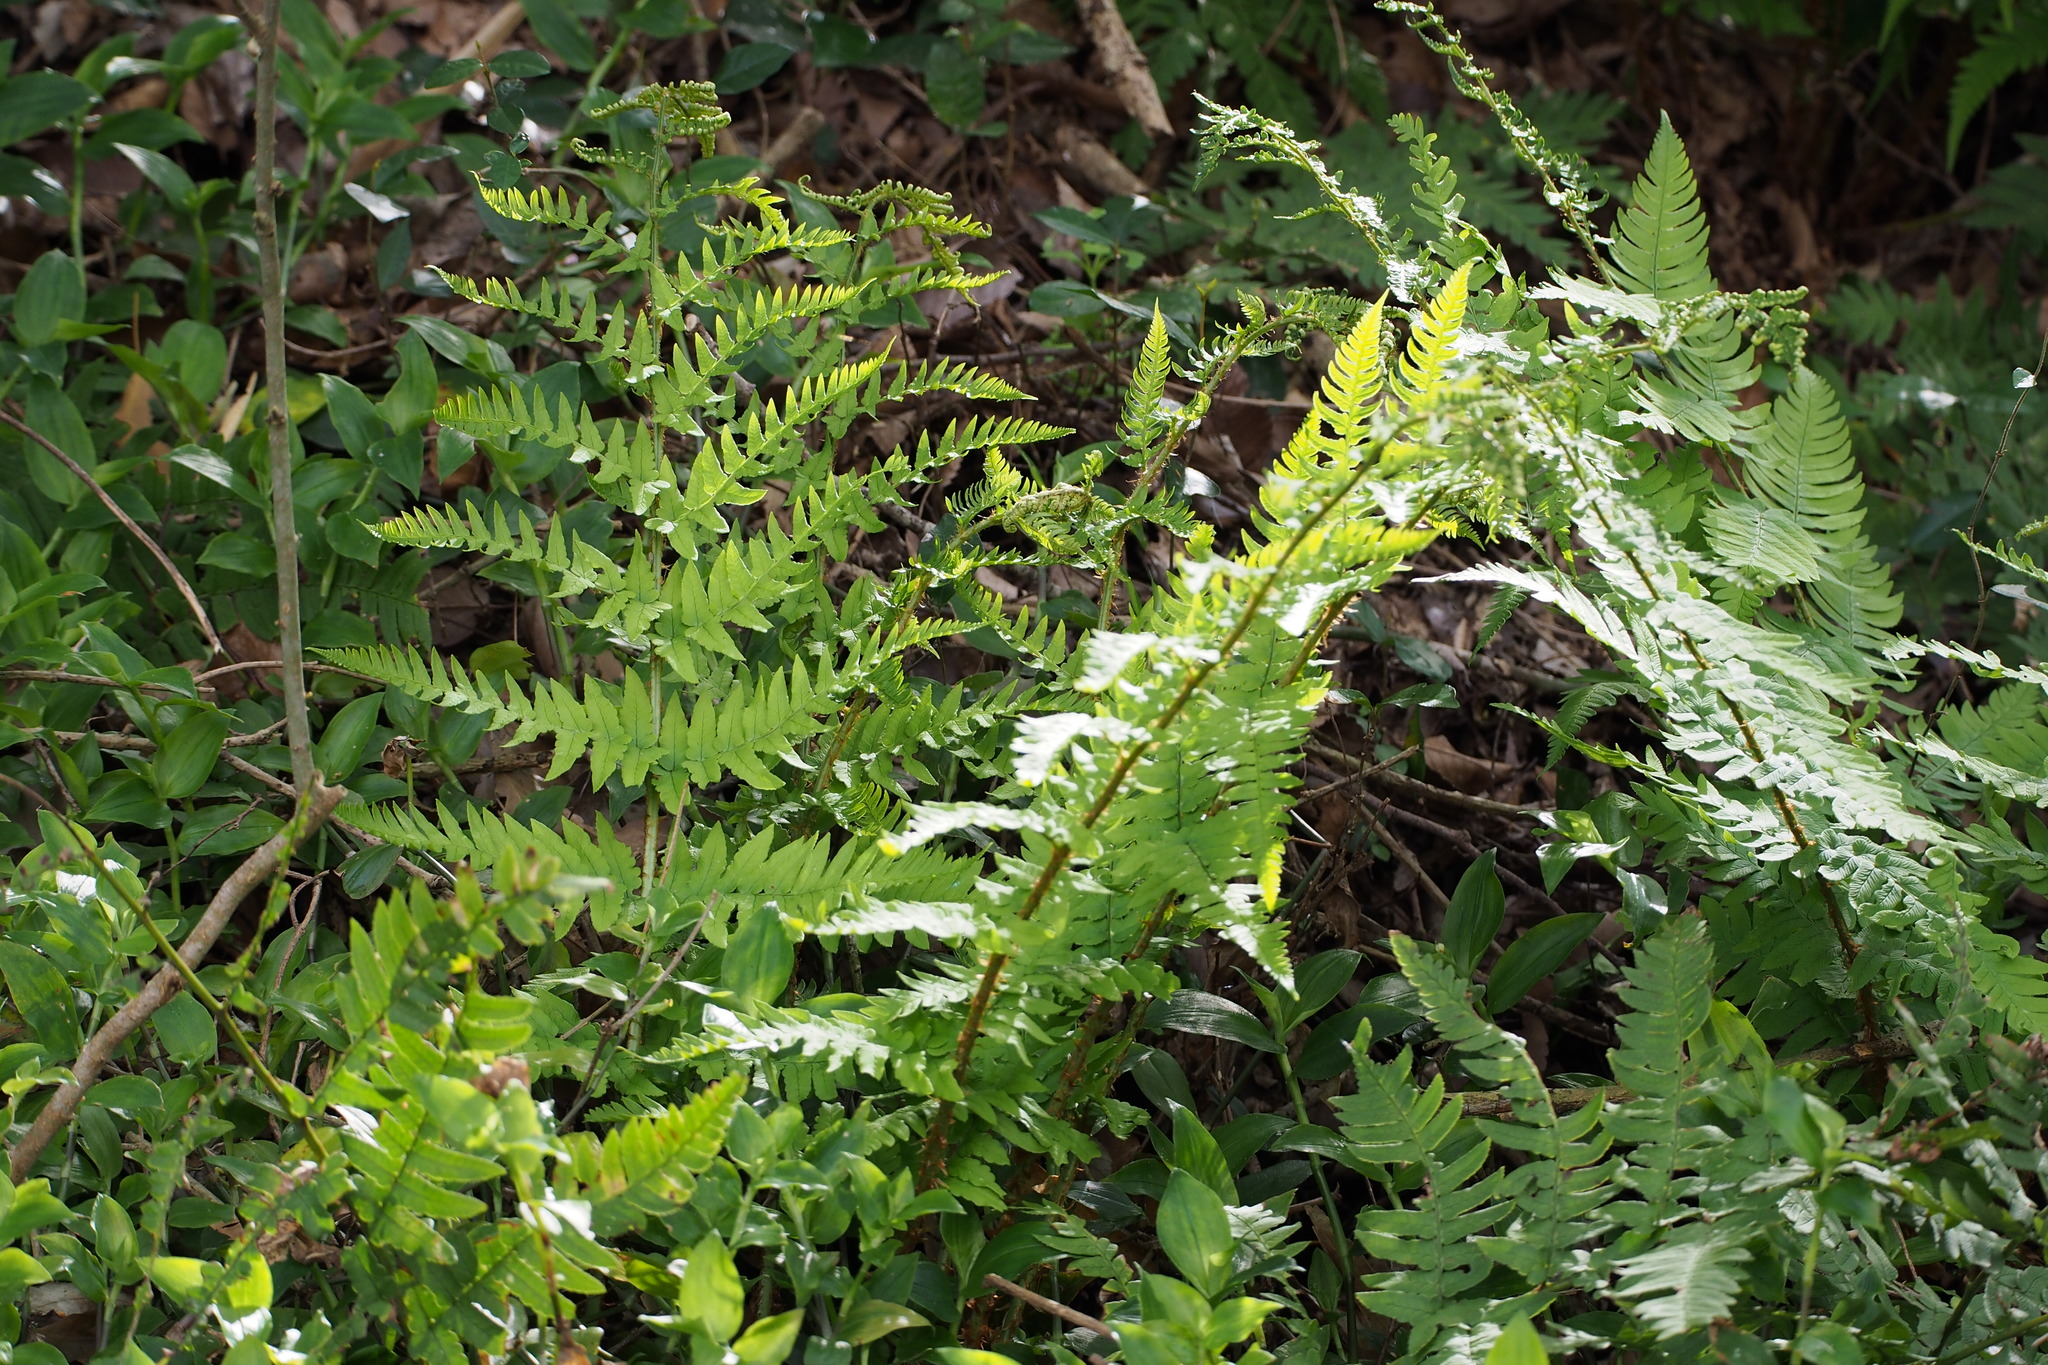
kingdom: Plantae
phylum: Tracheophyta
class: Polypodiopsida
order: Polypodiales
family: Dryopteridaceae
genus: Dryopteris
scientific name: Dryopteris lacera
